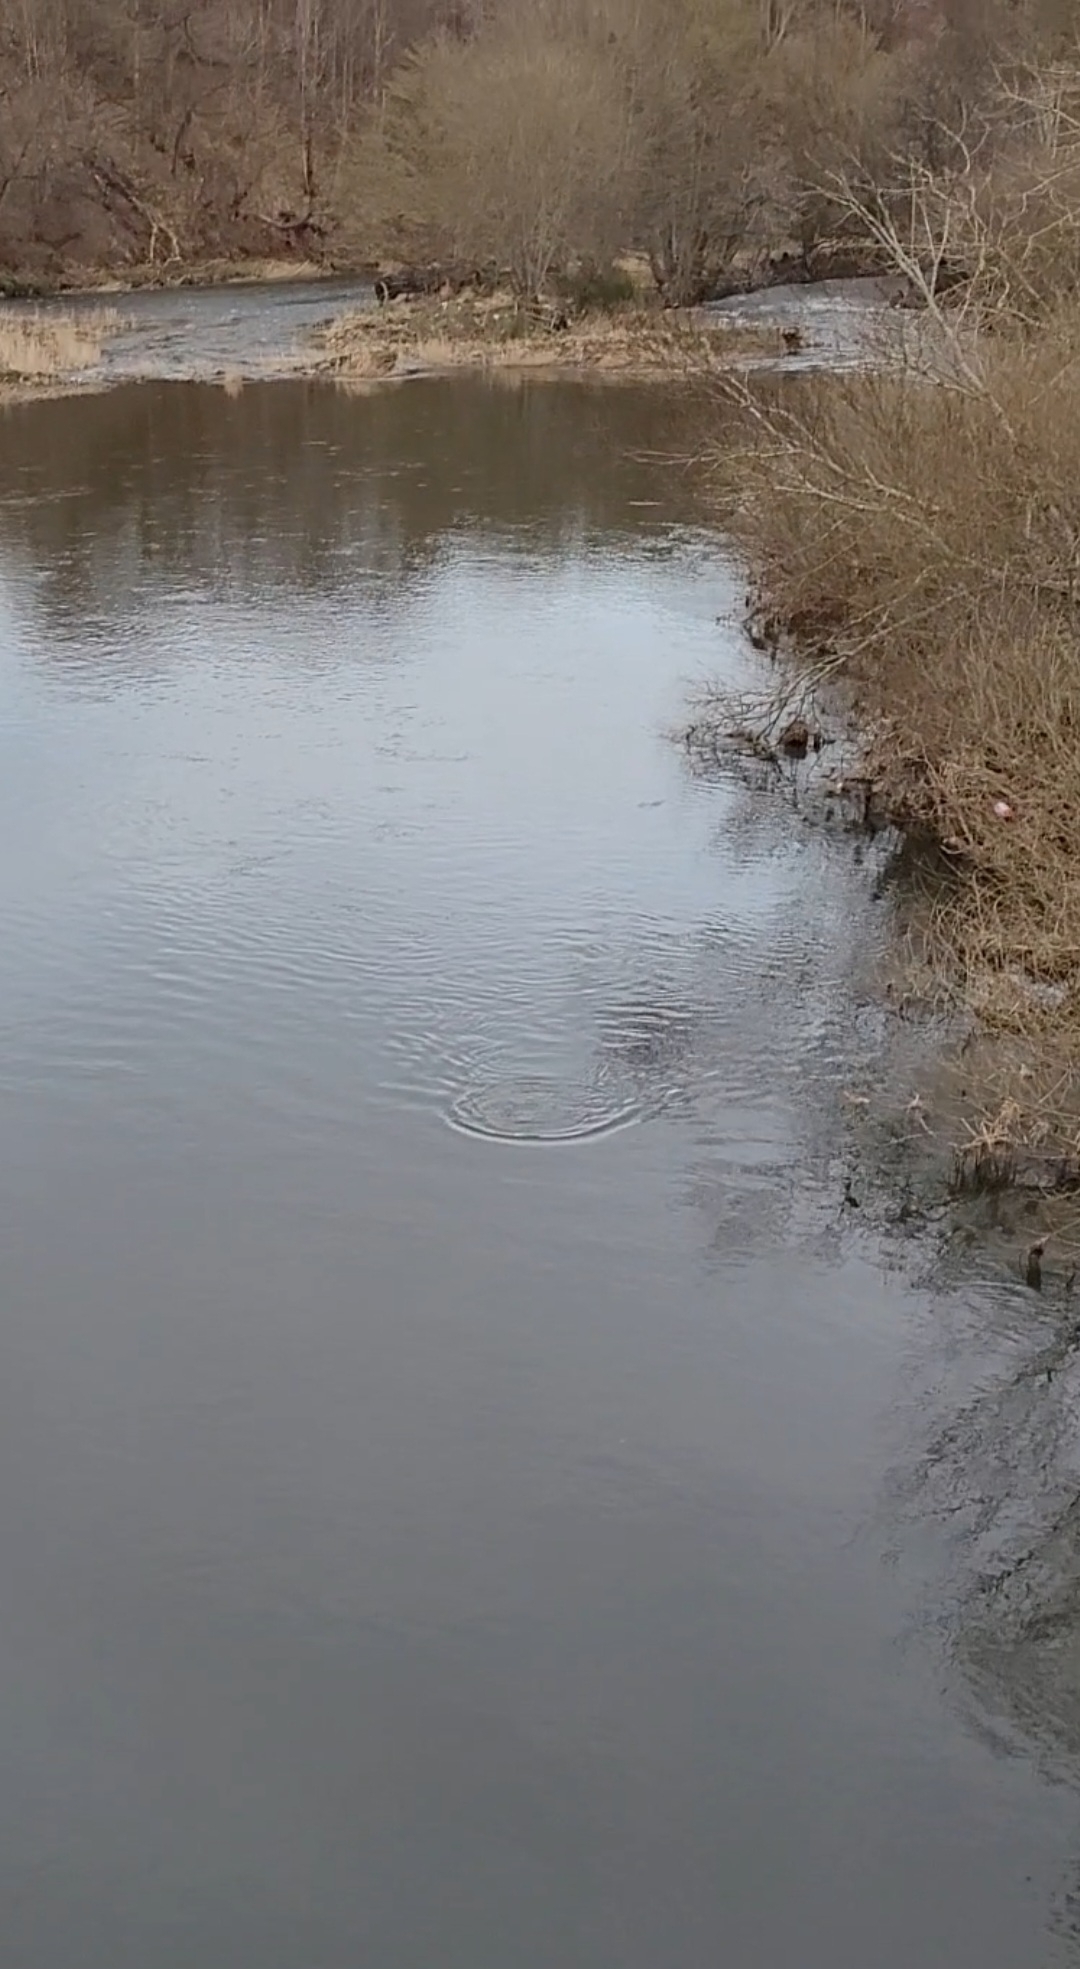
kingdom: Animalia
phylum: Chordata
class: Mammalia
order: Carnivora
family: Mustelidae
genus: Lutra
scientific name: Lutra lutra
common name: European otter
